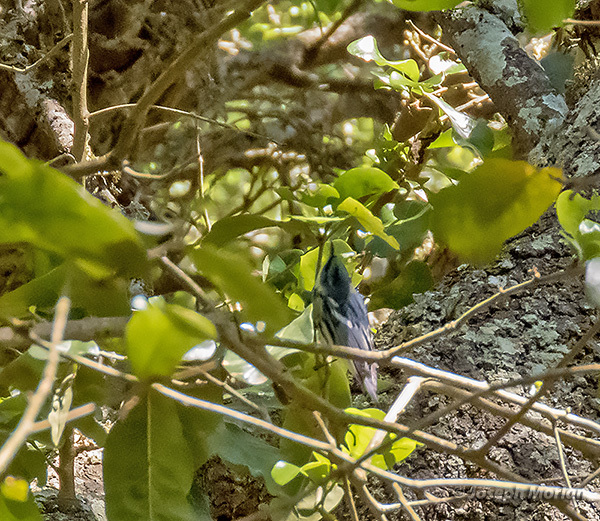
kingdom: Animalia
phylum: Chordata
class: Aves
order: Passeriformes
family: Parulidae
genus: Setophaga
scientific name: Setophaga cerulea
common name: Cerulean warbler
